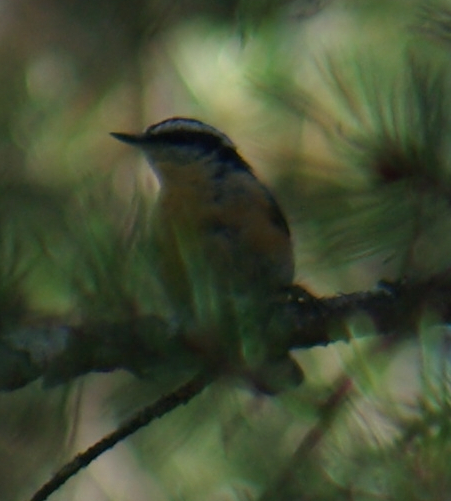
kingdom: Animalia
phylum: Chordata
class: Aves
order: Passeriformes
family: Sittidae
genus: Sitta
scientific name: Sitta canadensis
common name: Red-breasted nuthatch
